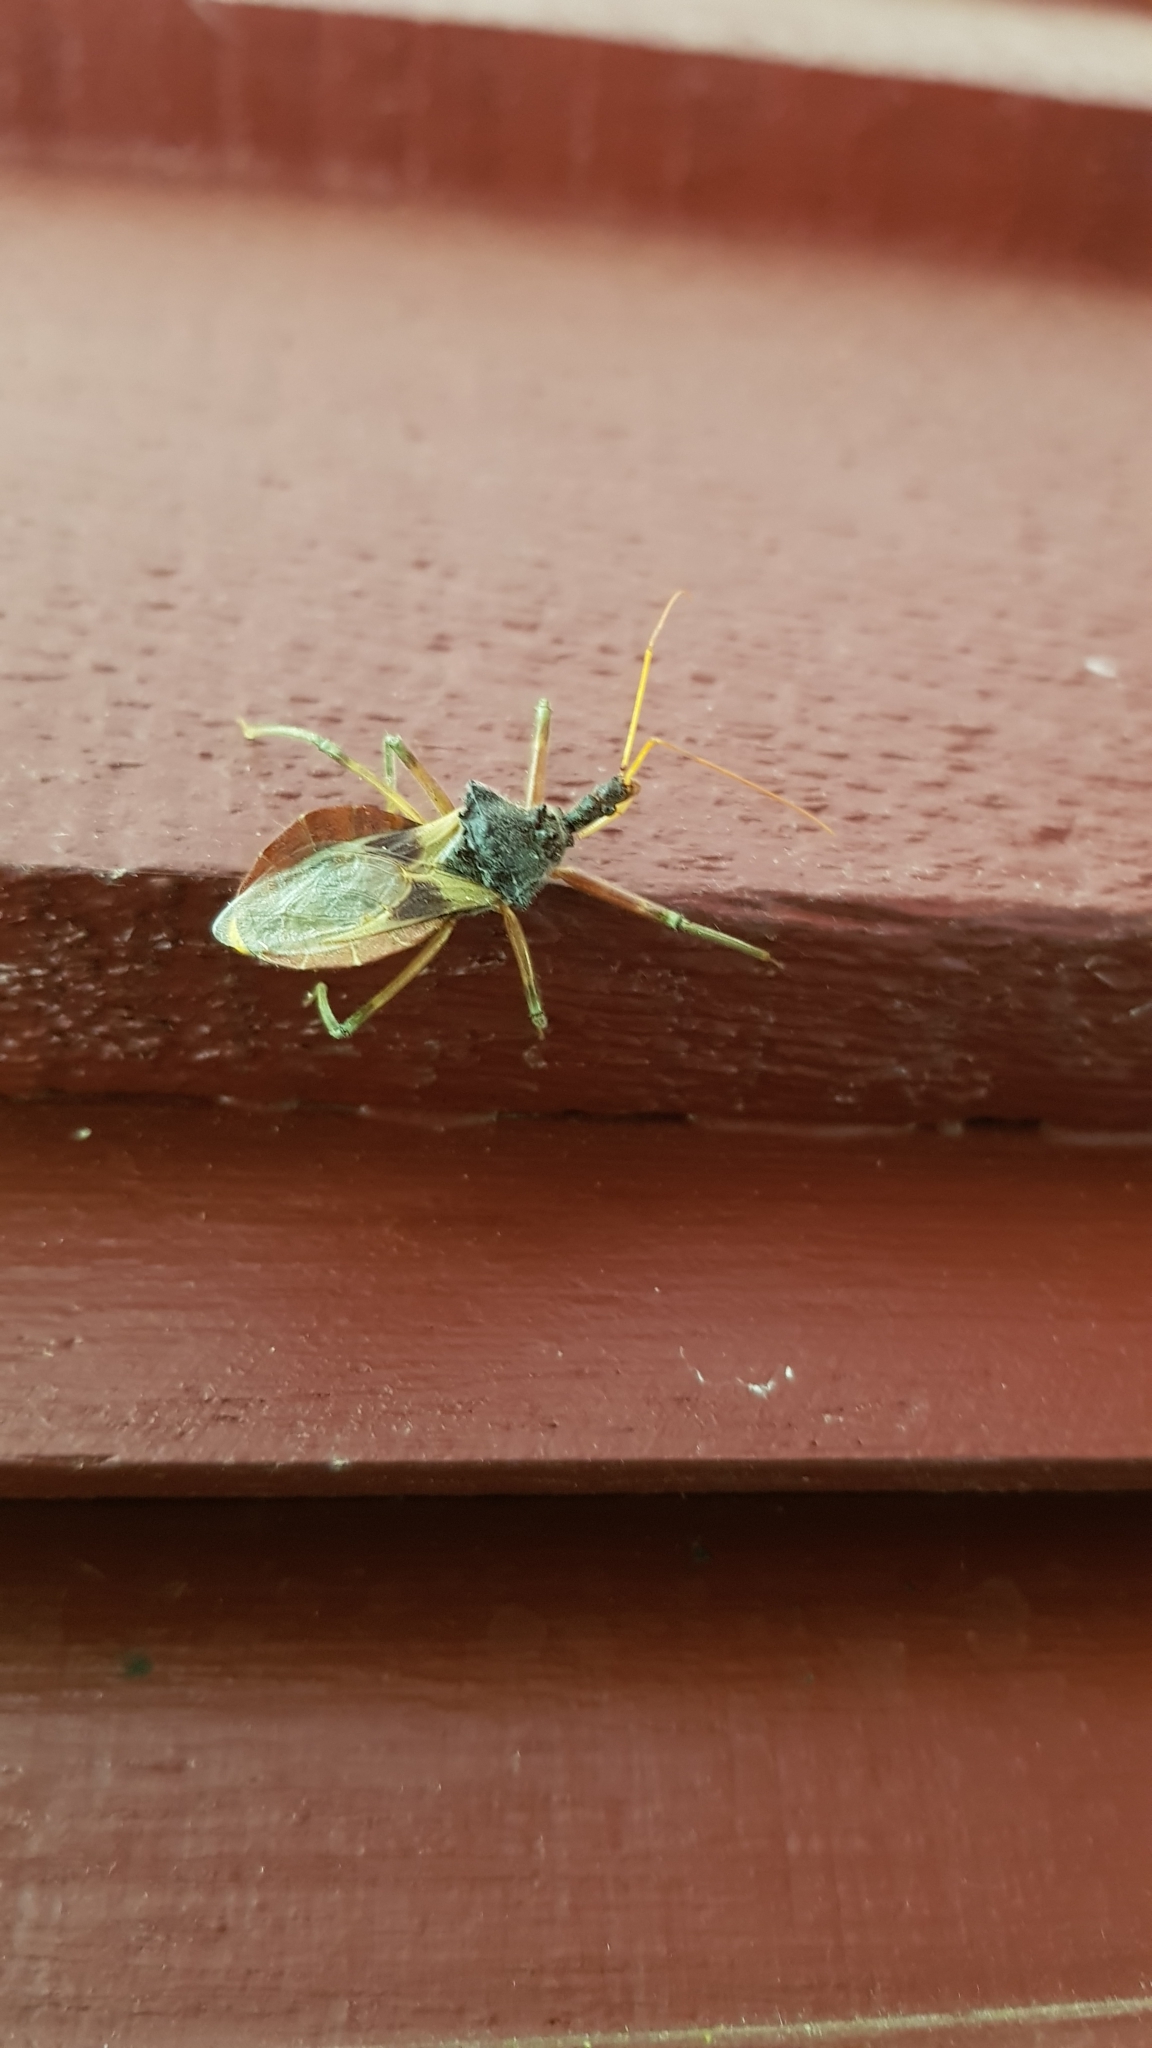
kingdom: Animalia
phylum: Arthropoda
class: Insecta
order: Hemiptera
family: Reduviidae
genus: Pristhesancus
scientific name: Pristhesancus plagipennis
